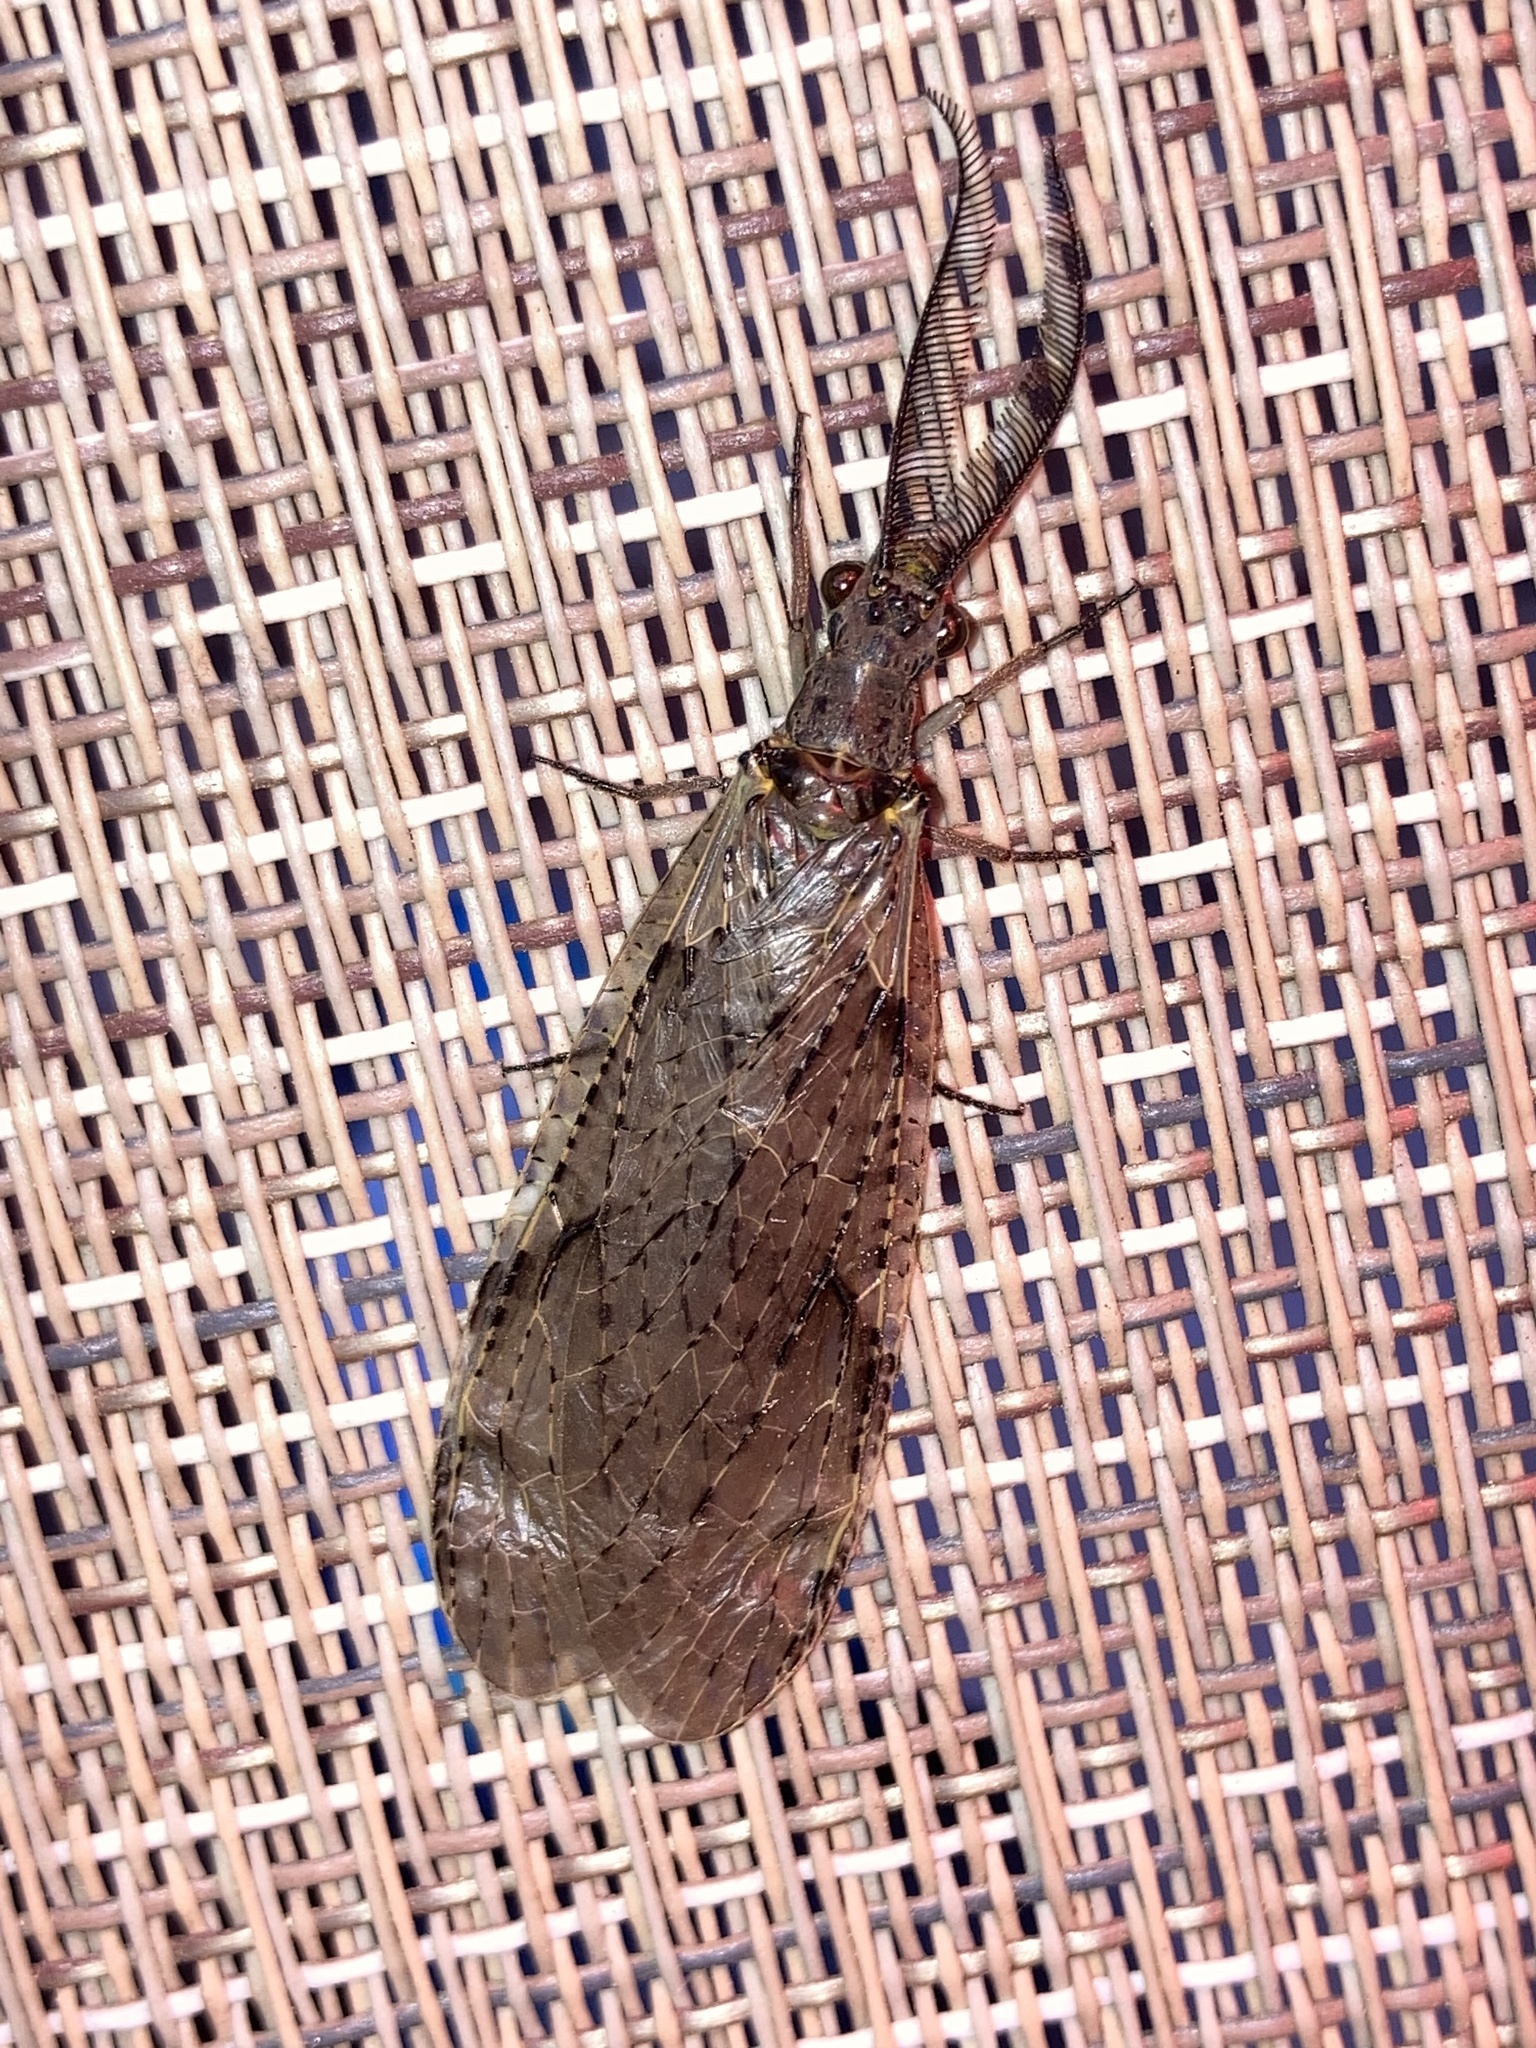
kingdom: Animalia
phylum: Arthropoda
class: Insecta
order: Megaloptera
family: Corydalidae
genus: Chauliodes
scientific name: Chauliodes rastricornis
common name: Spring fishfly
